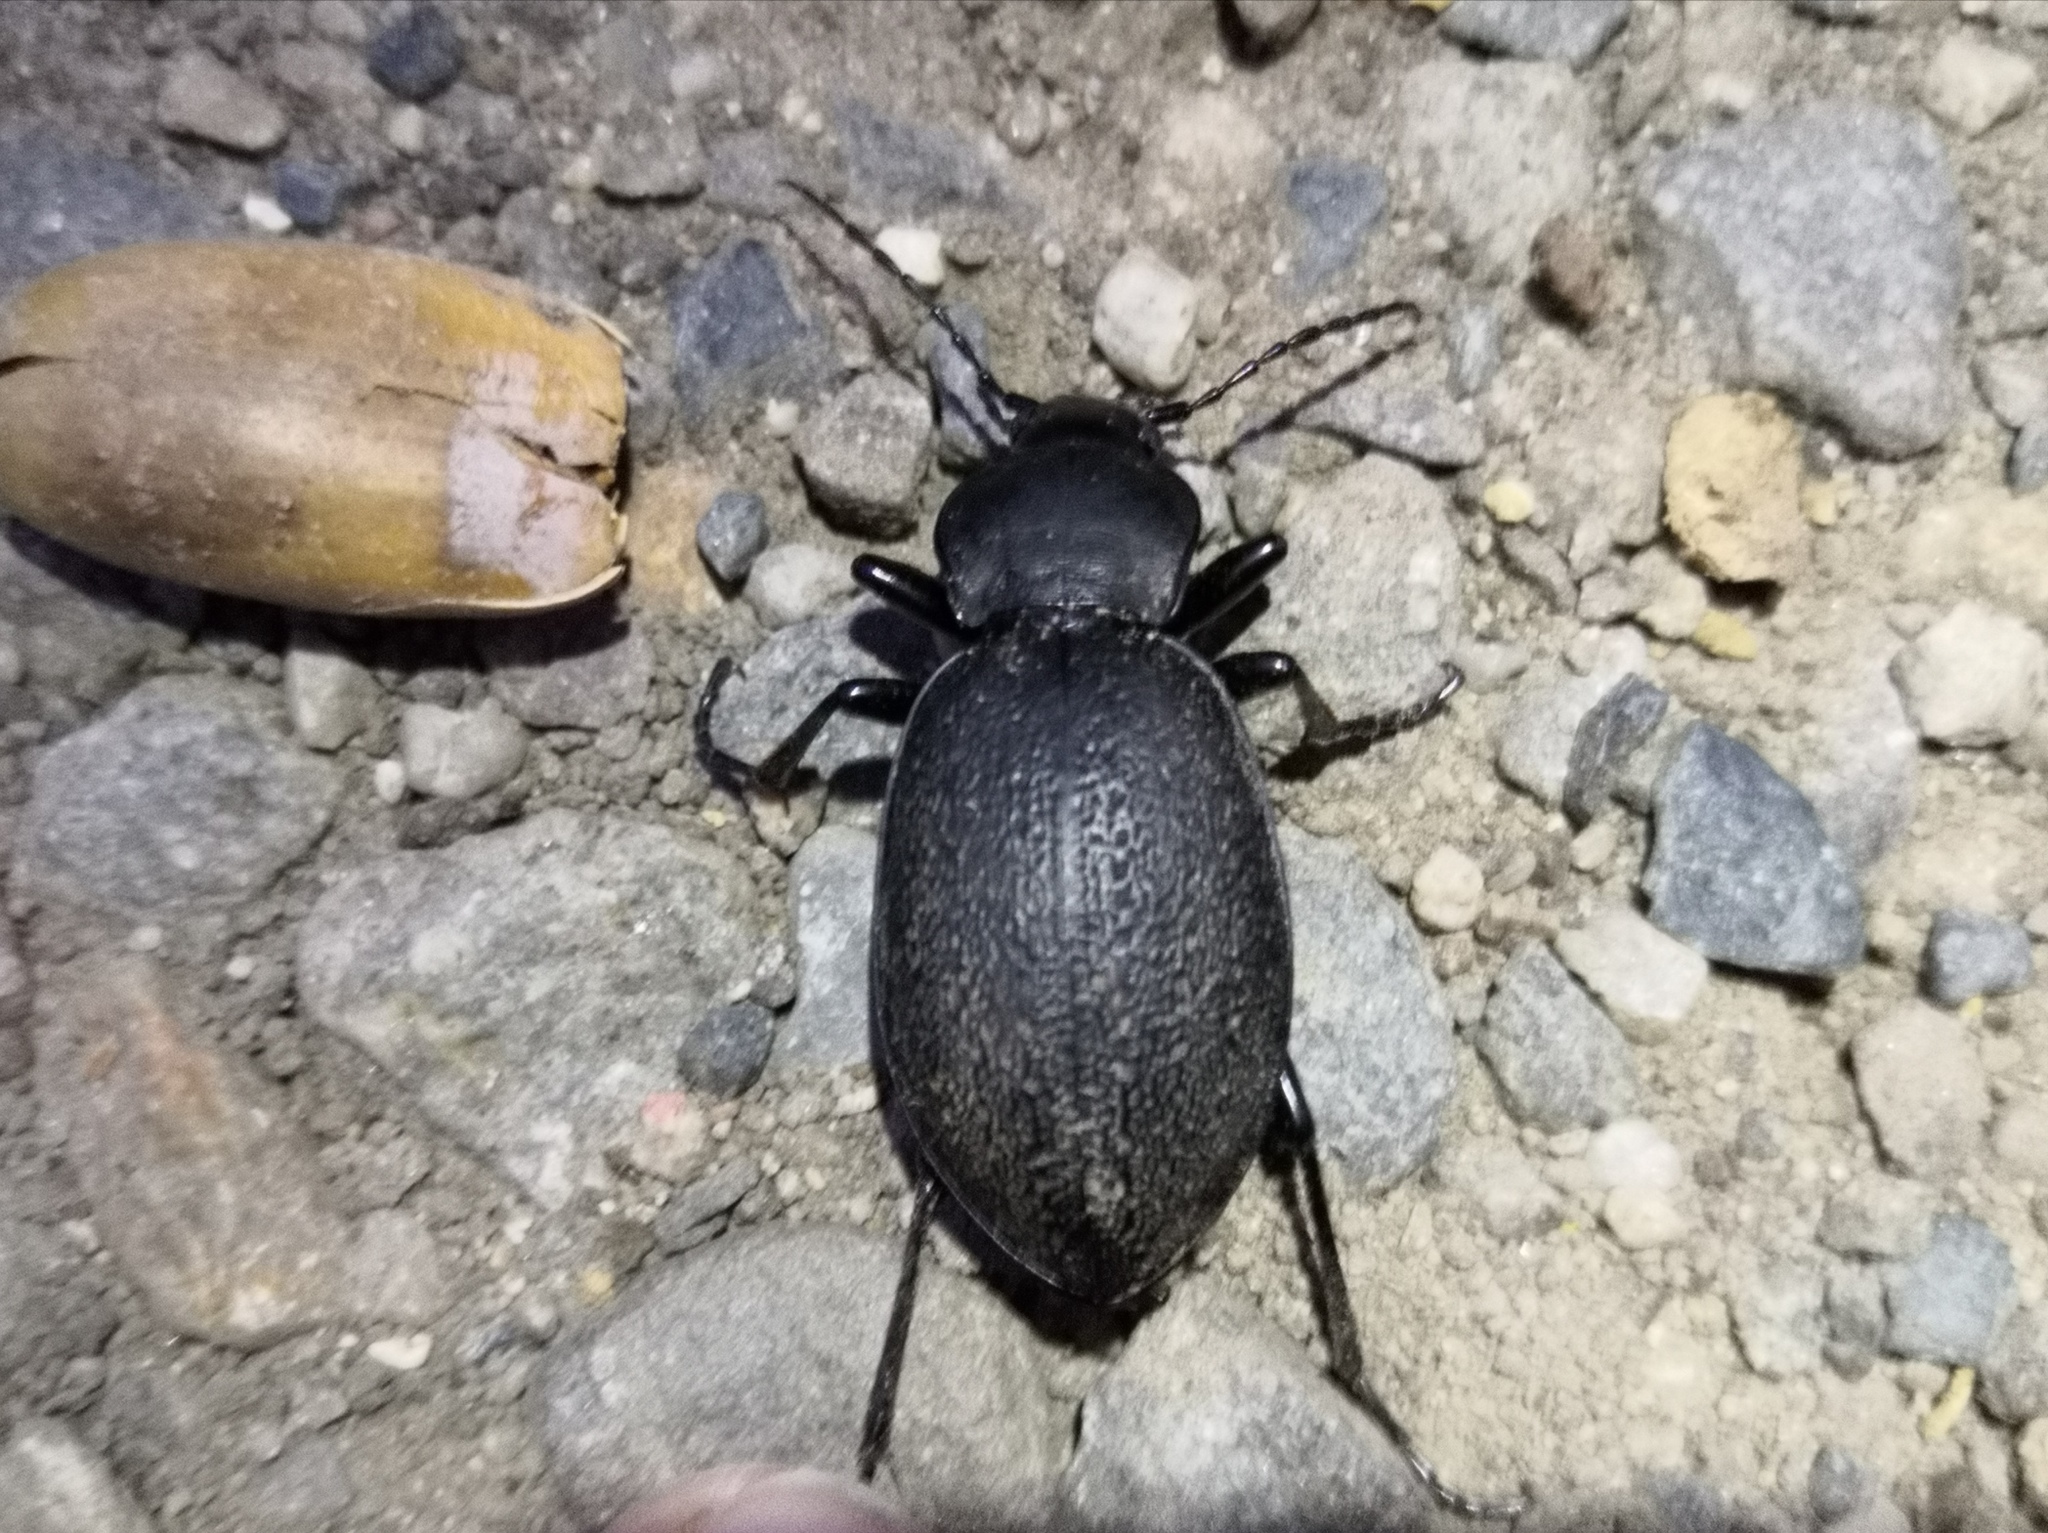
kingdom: Animalia
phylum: Arthropoda
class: Insecta
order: Coleoptera
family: Carabidae
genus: Carabus
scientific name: Carabus coriaceus
